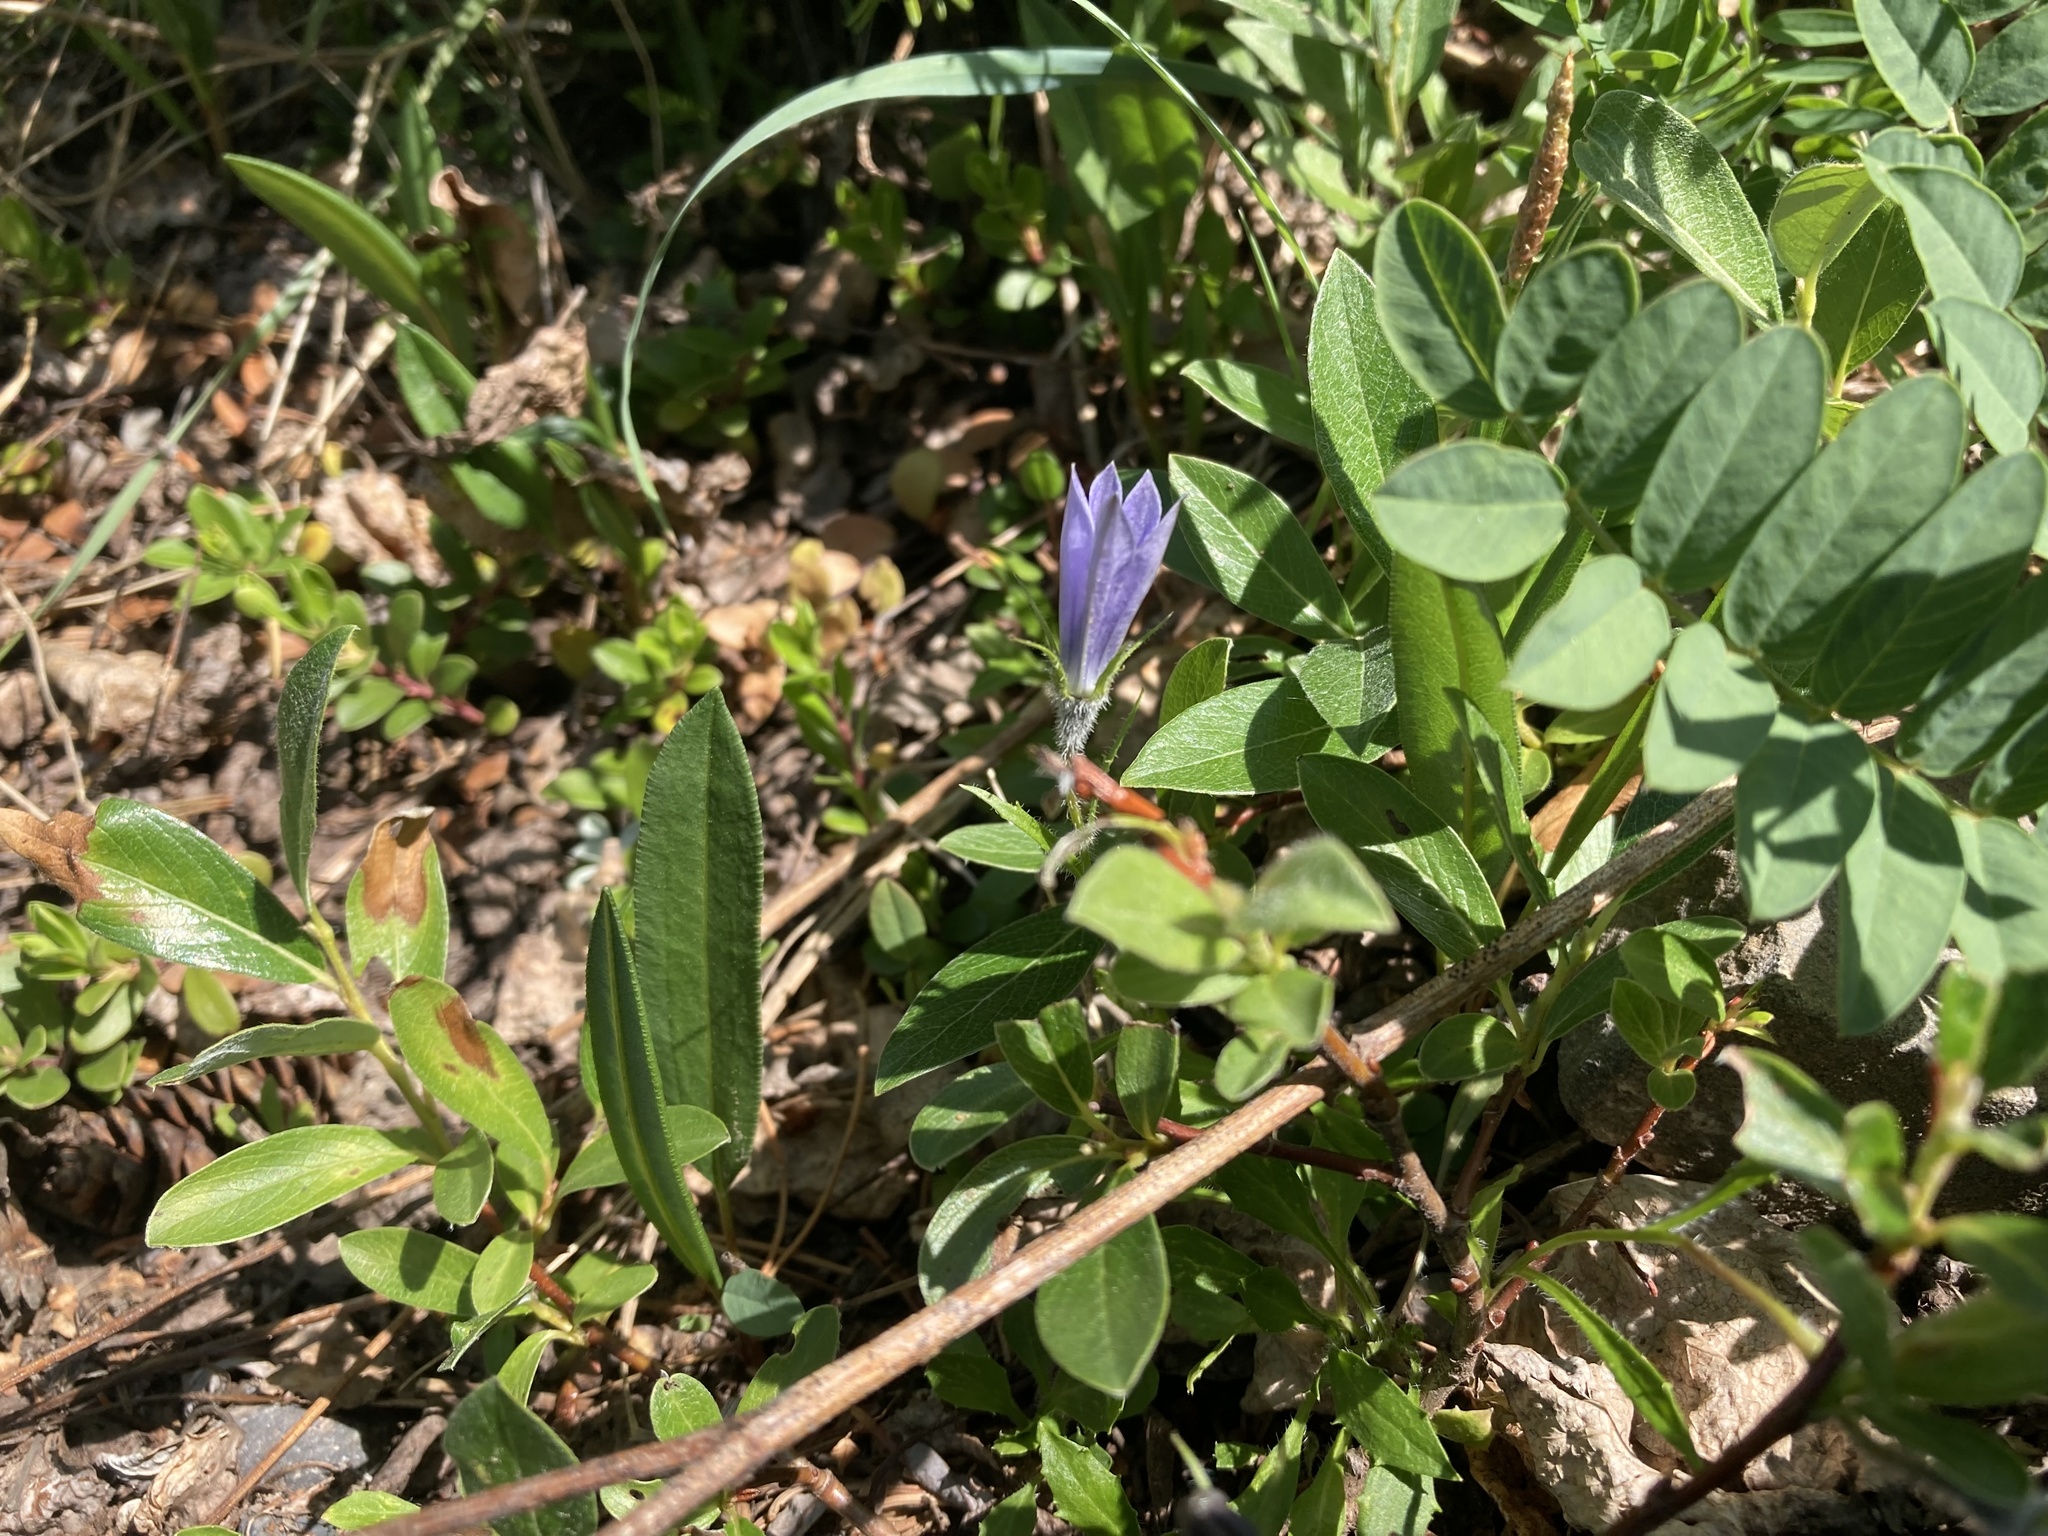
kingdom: Plantae
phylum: Tracheophyta
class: Magnoliopsida
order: Asterales
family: Campanulaceae
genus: Campanula
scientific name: Campanula lasiocarpa
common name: Mountain harebell
